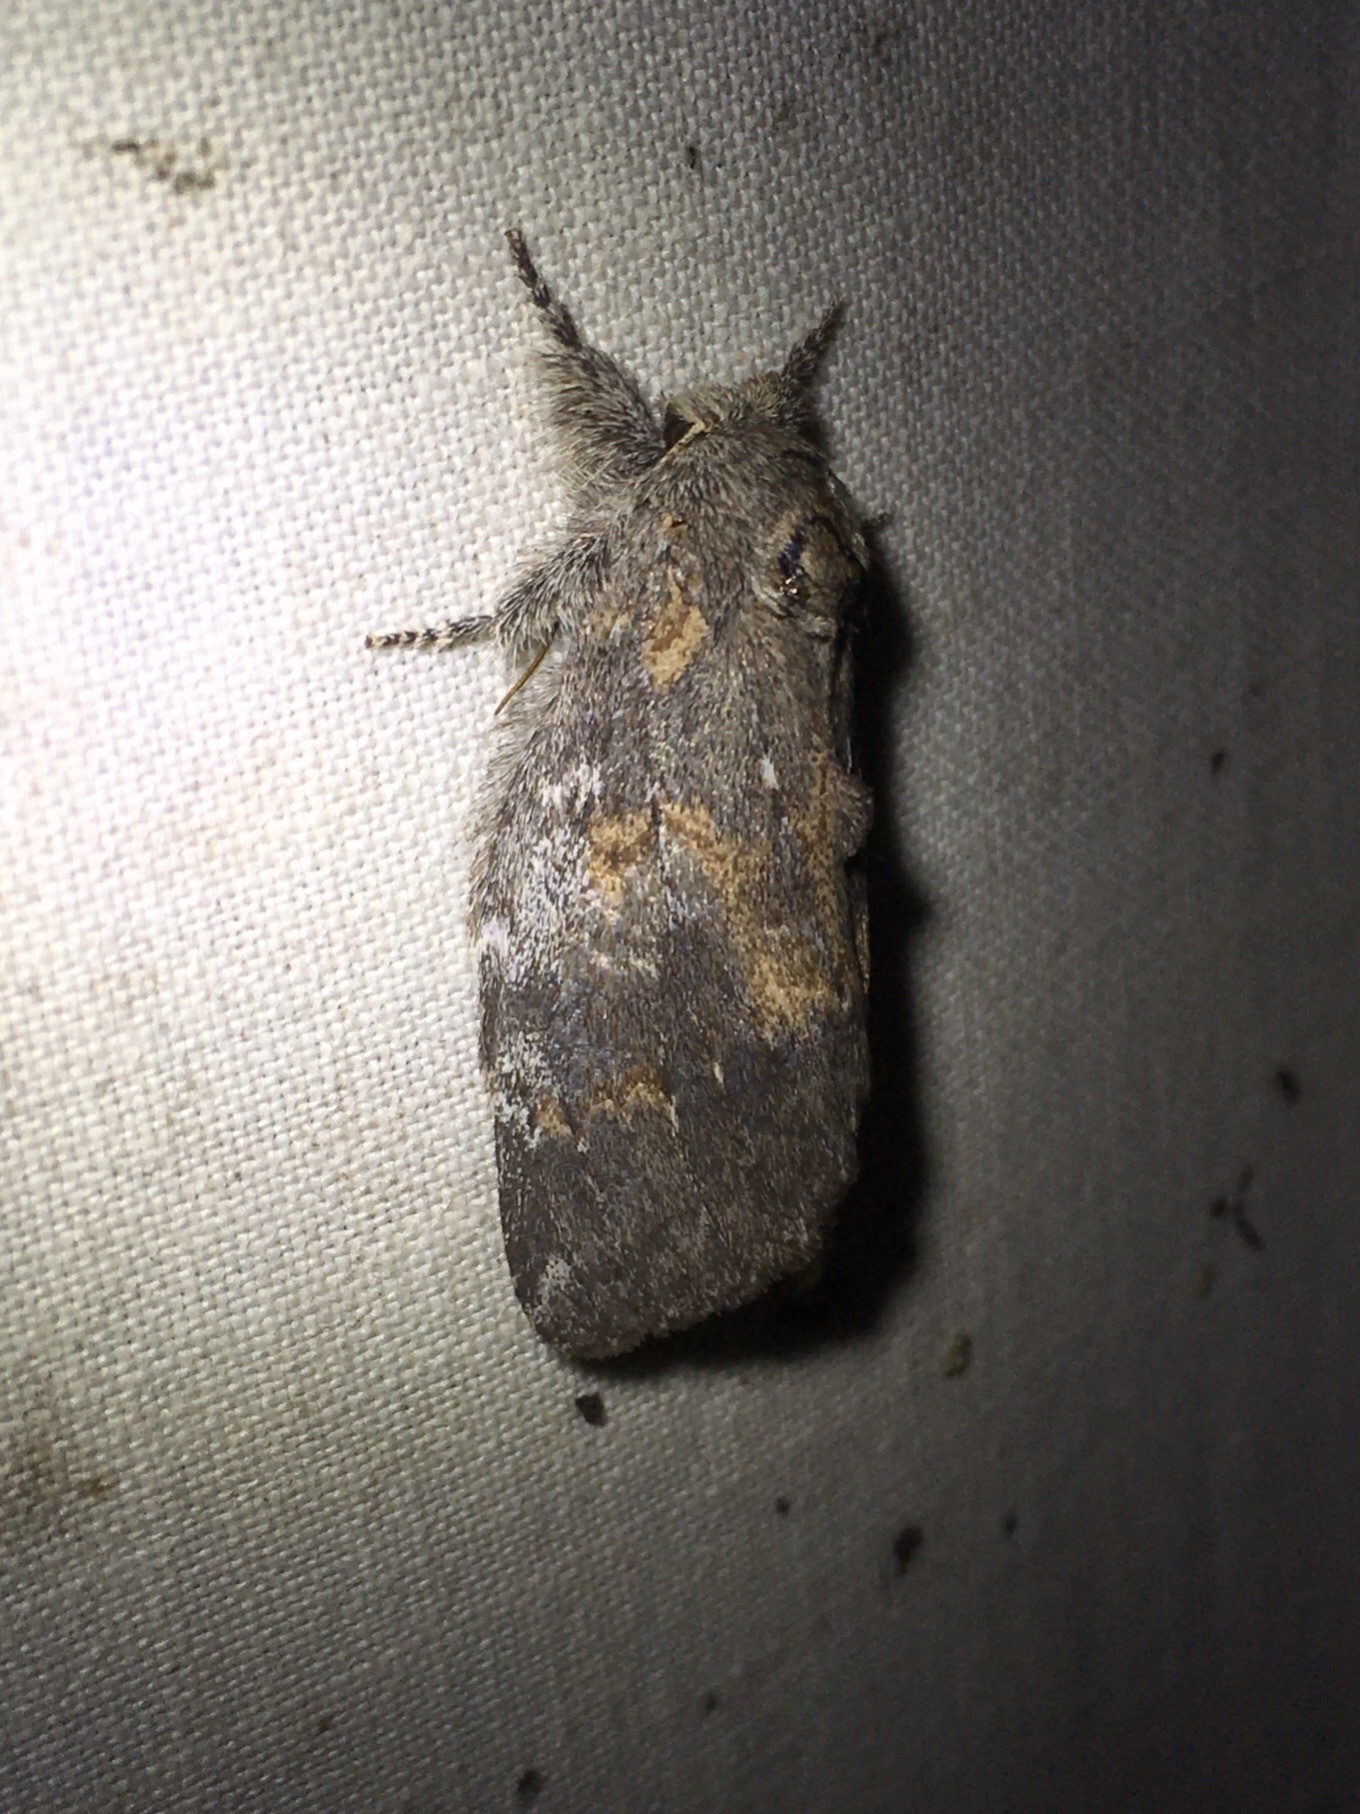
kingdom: Animalia
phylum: Arthropoda
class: Insecta
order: Lepidoptera
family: Notodontidae
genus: Peridea
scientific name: Peridea angulosa
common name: Angulose prominent
